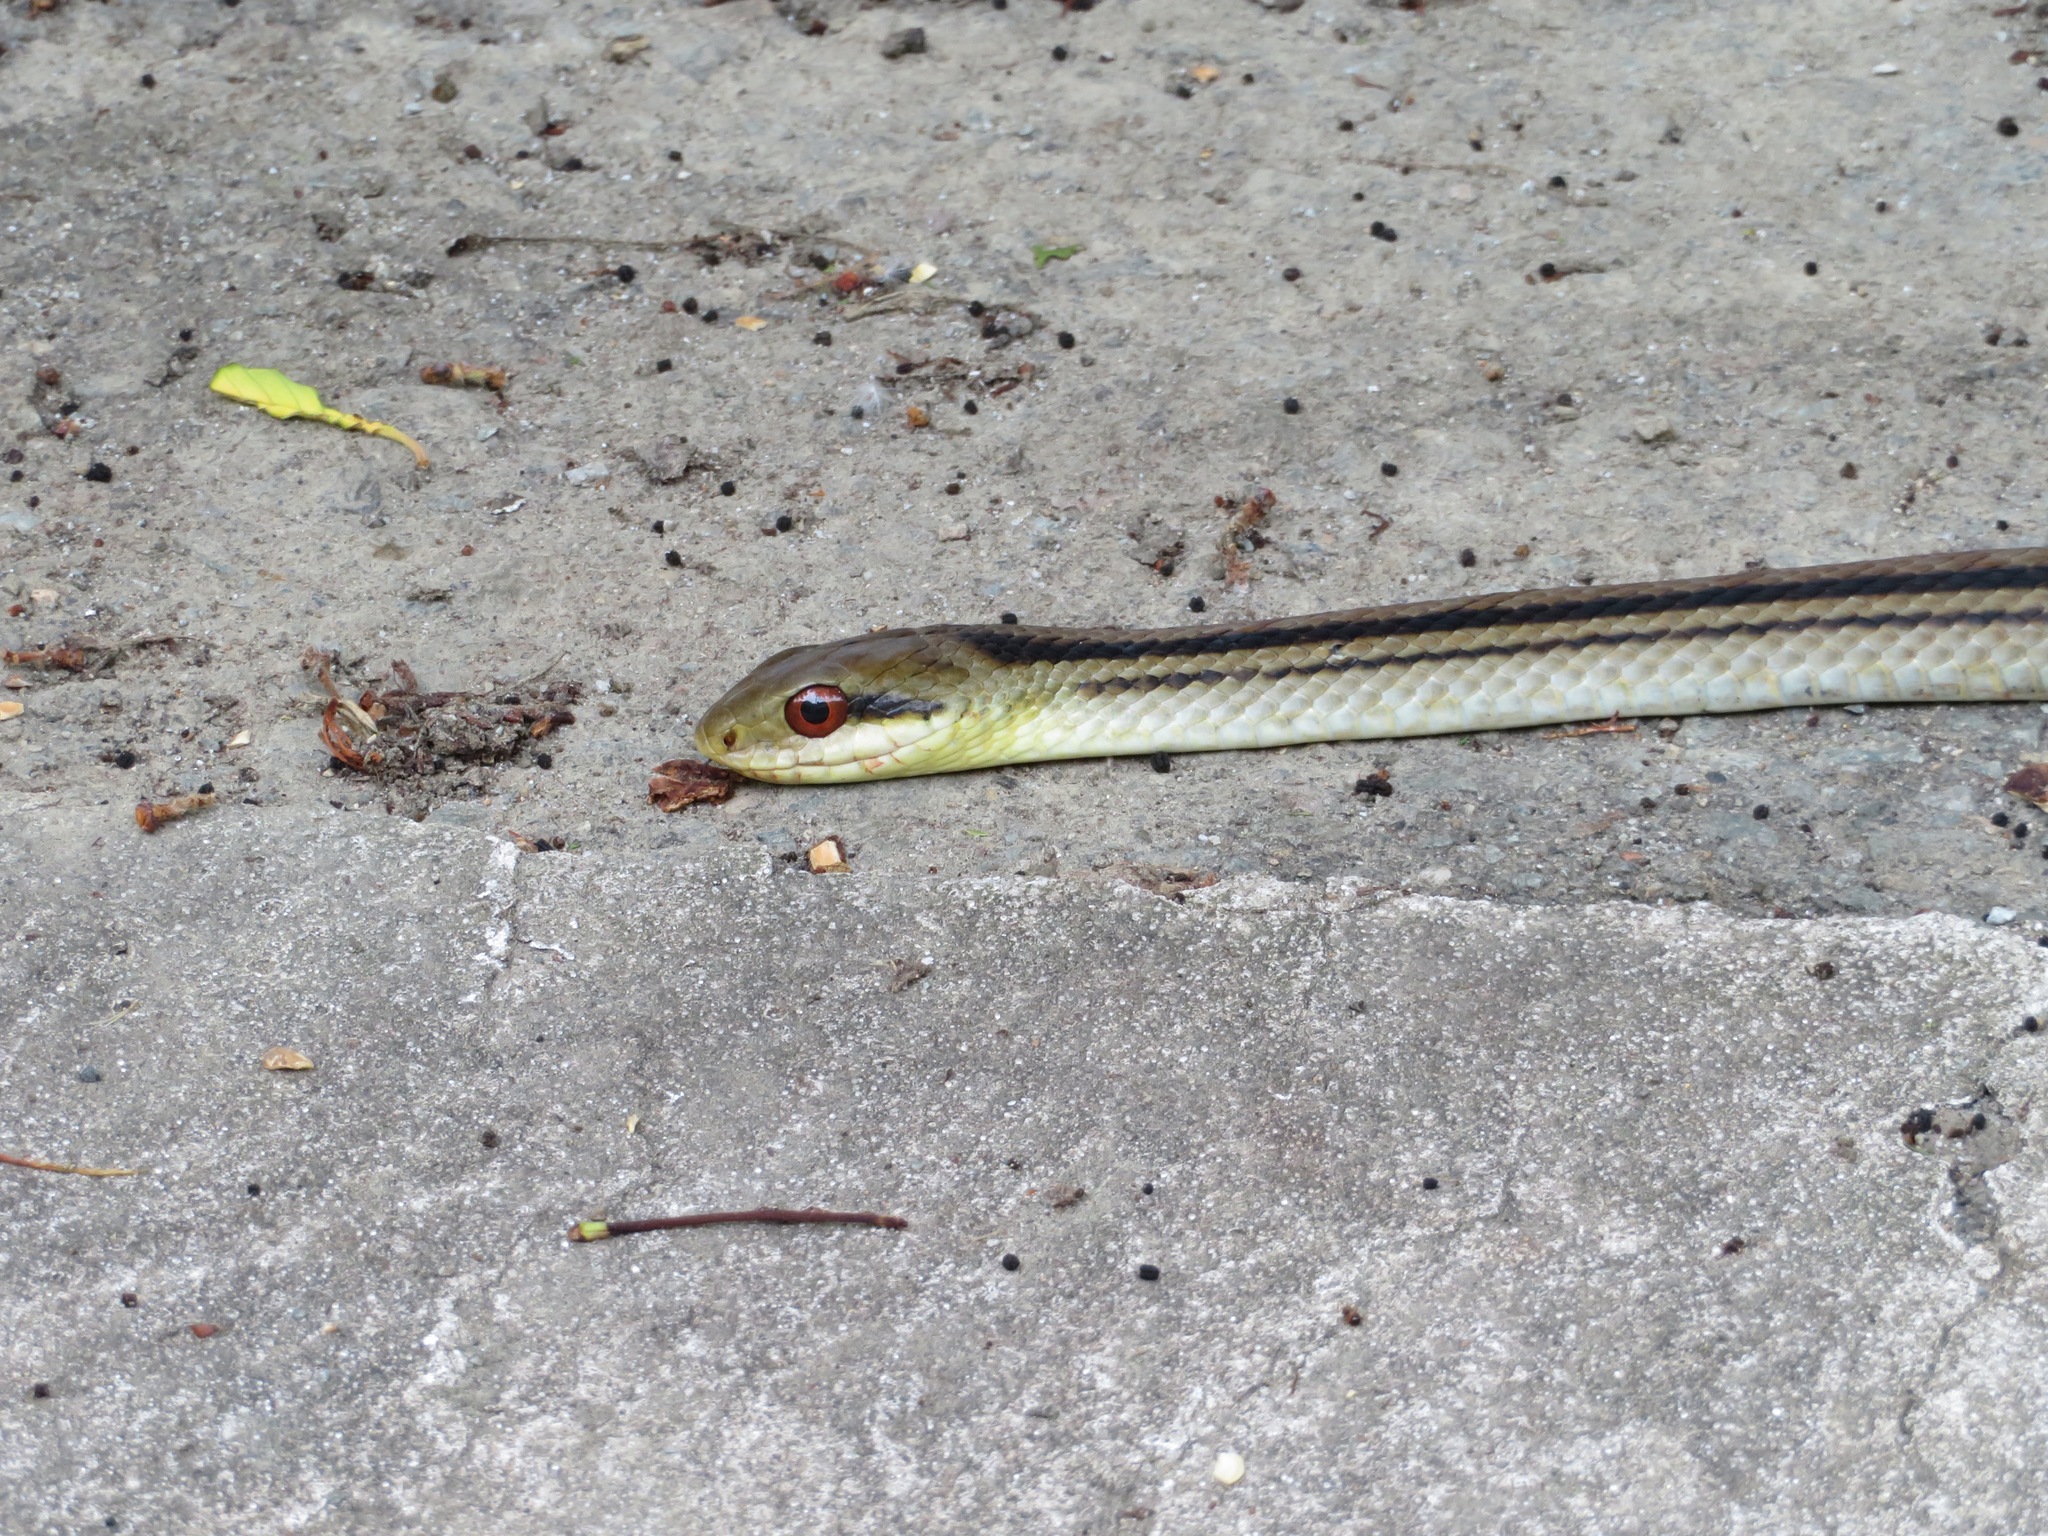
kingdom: Animalia
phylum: Chordata
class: Squamata
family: Colubridae
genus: Elaphe
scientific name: Elaphe quadrivirgata
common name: Japanese four-lined ratsnake
